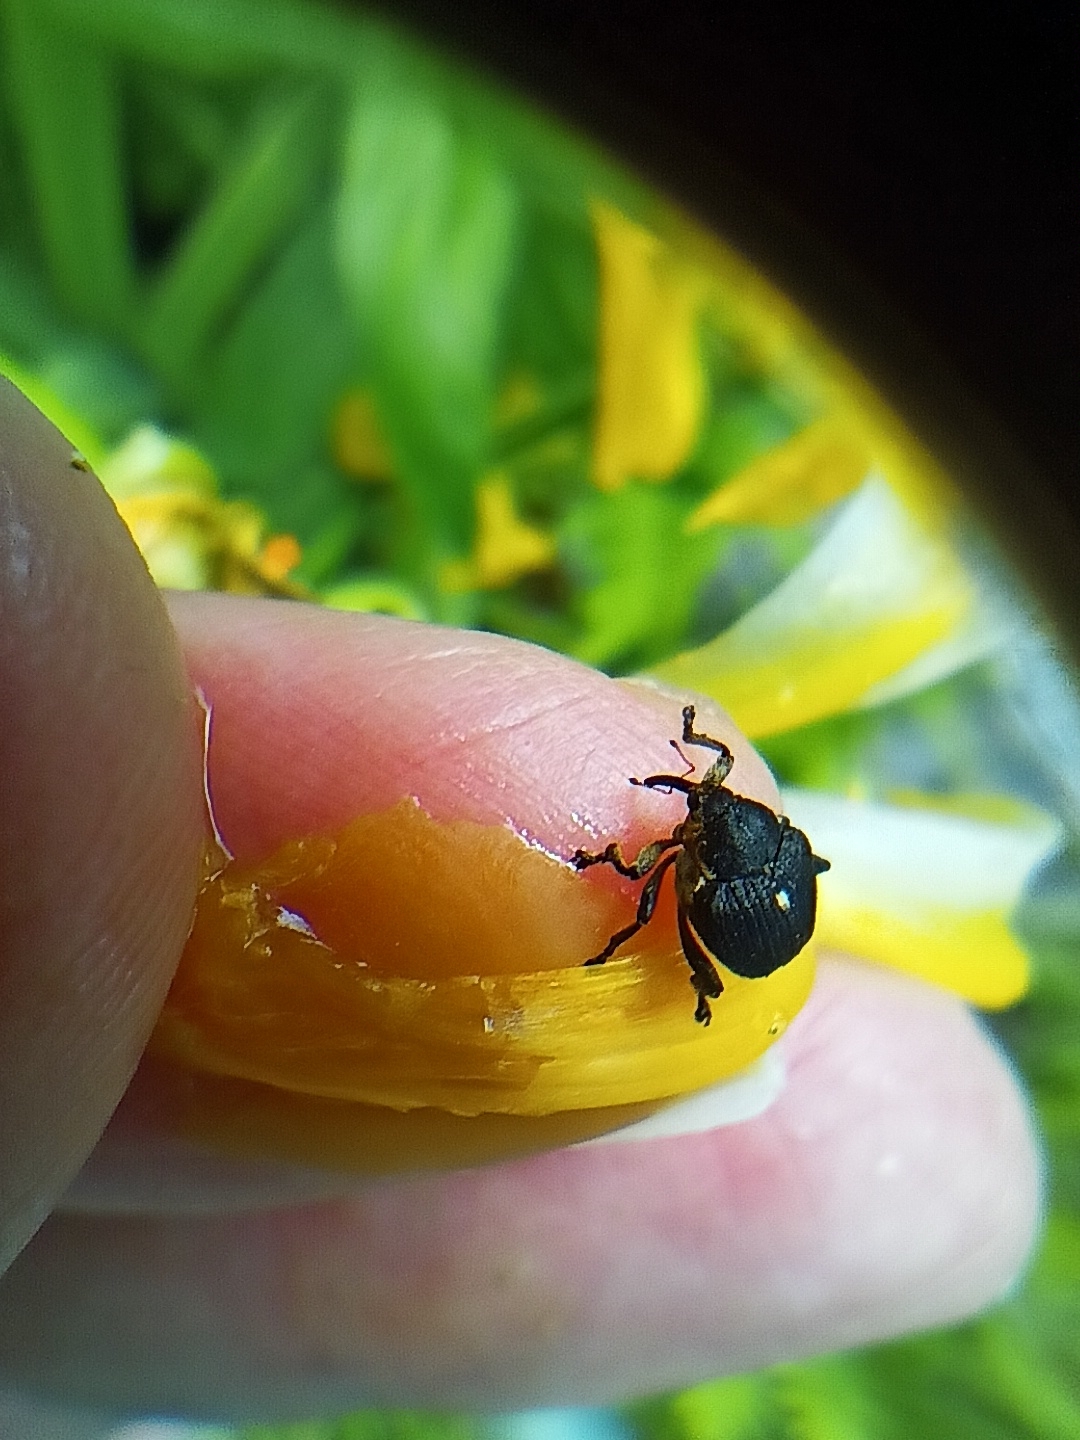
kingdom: Animalia
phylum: Arthropoda
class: Insecta
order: Coleoptera
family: Curculionidae
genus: Mononychus
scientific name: Mononychus punctumalbum
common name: Iris weevil
